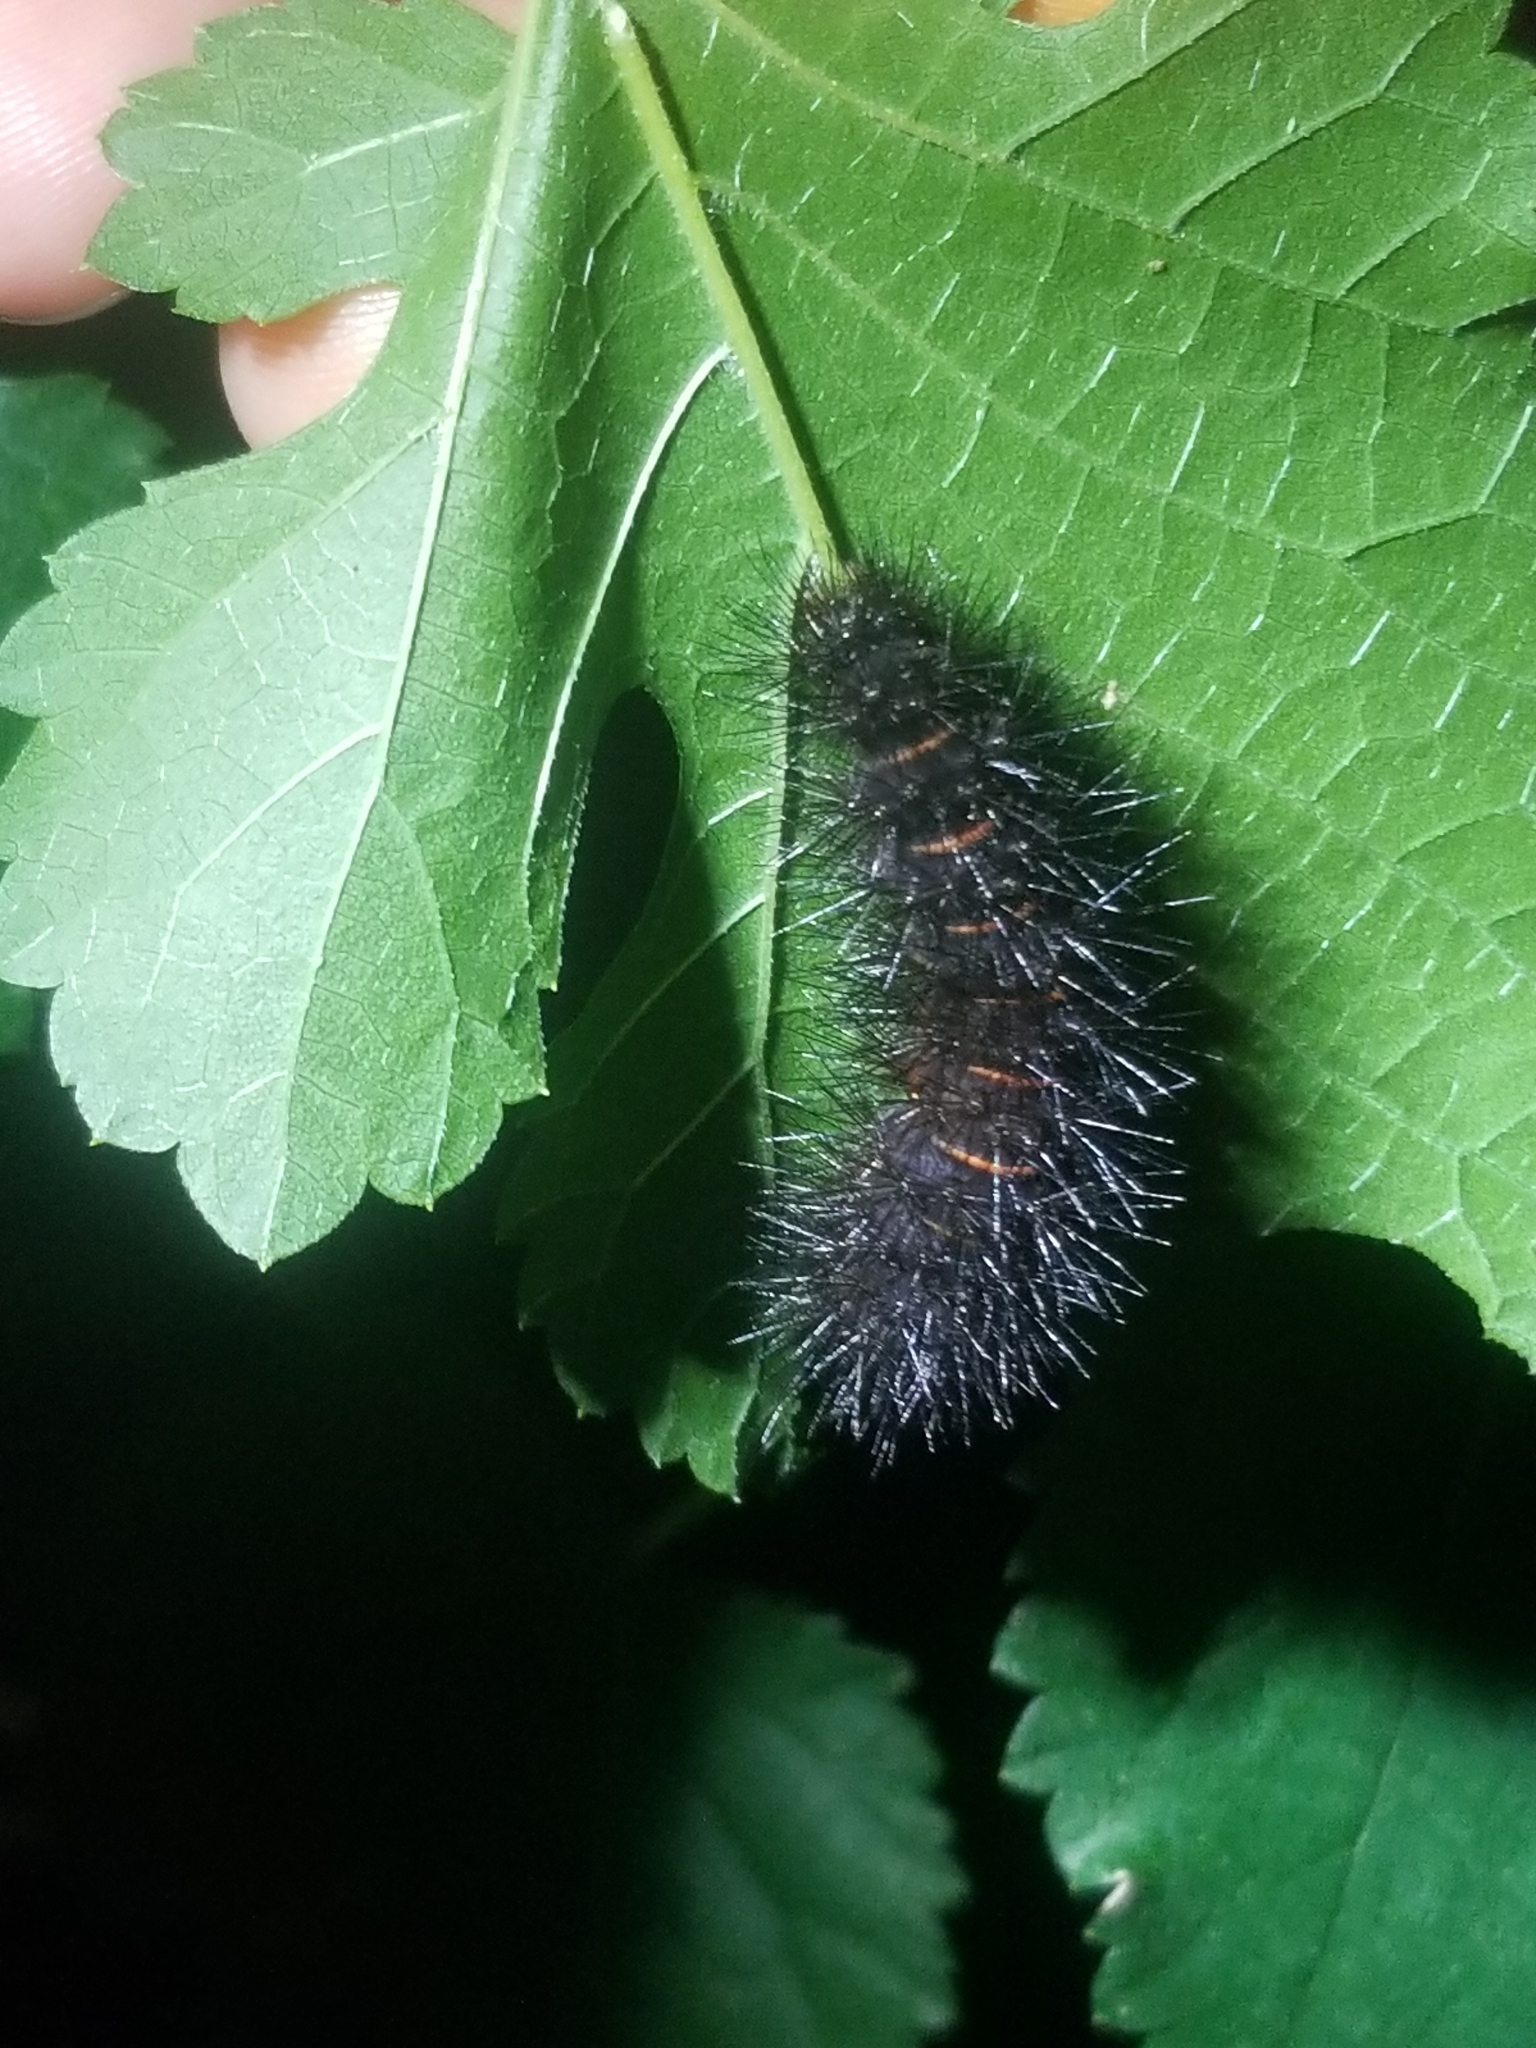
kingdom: Animalia
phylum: Arthropoda
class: Insecta
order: Lepidoptera
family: Erebidae
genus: Hypercompe
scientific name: Hypercompe scribonia
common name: Giant leopard moth
